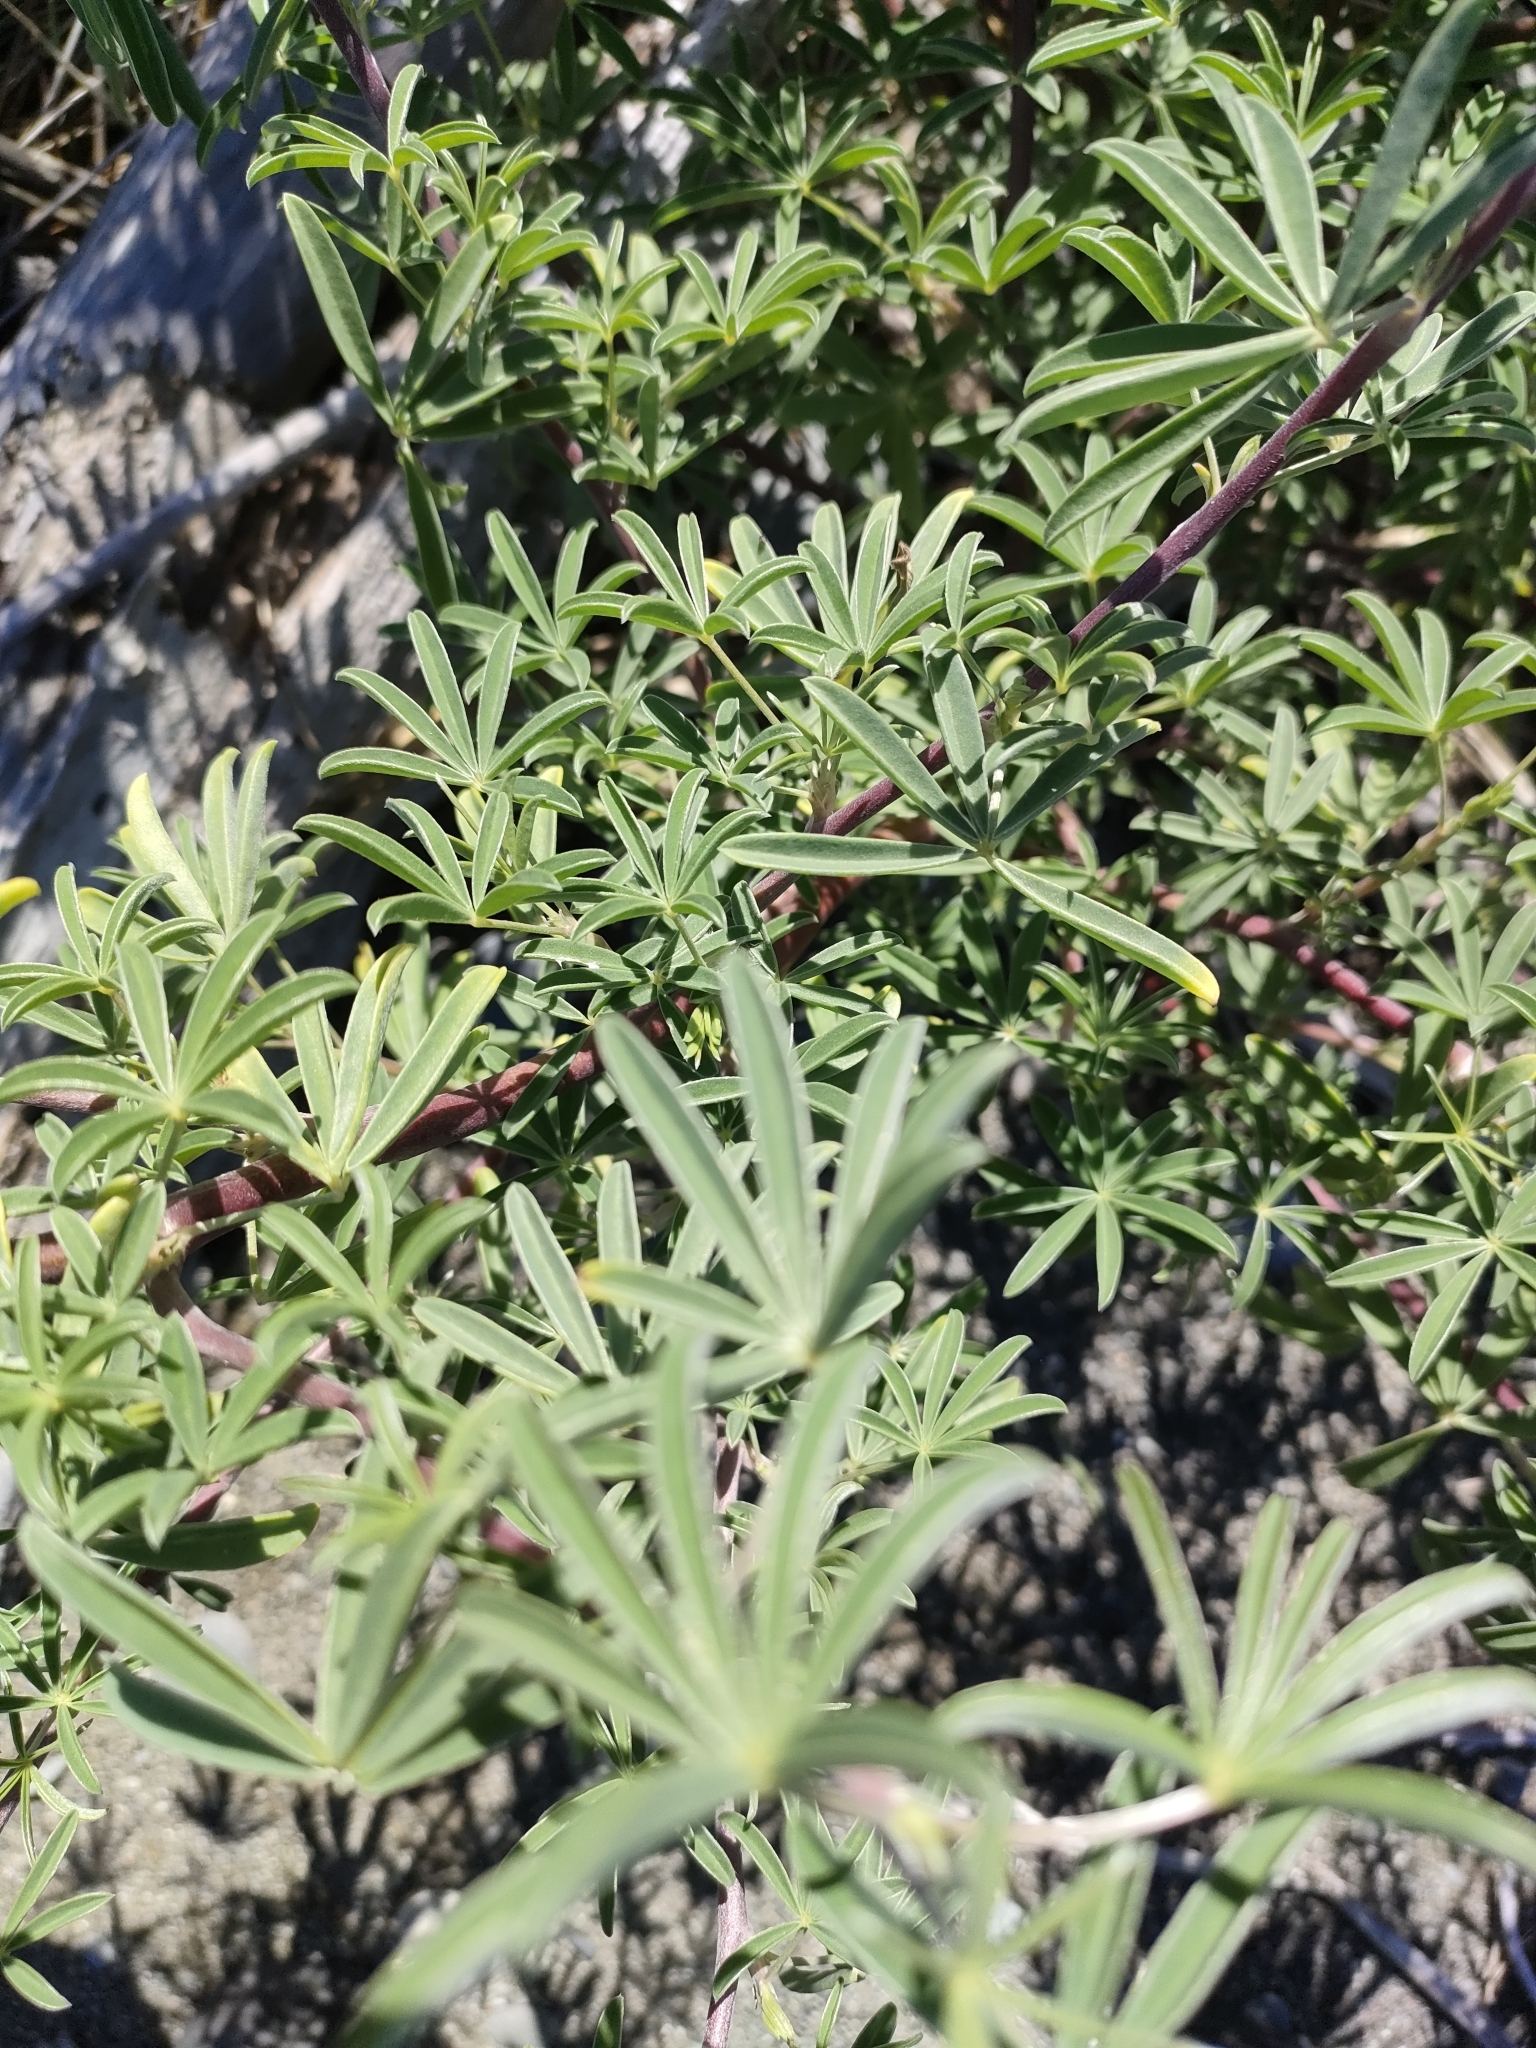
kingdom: Plantae
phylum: Tracheophyta
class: Magnoliopsida
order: Fabales
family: Fabaceae
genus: Lupinus
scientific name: Lupinus arboreus
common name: Yellow bush lupine
